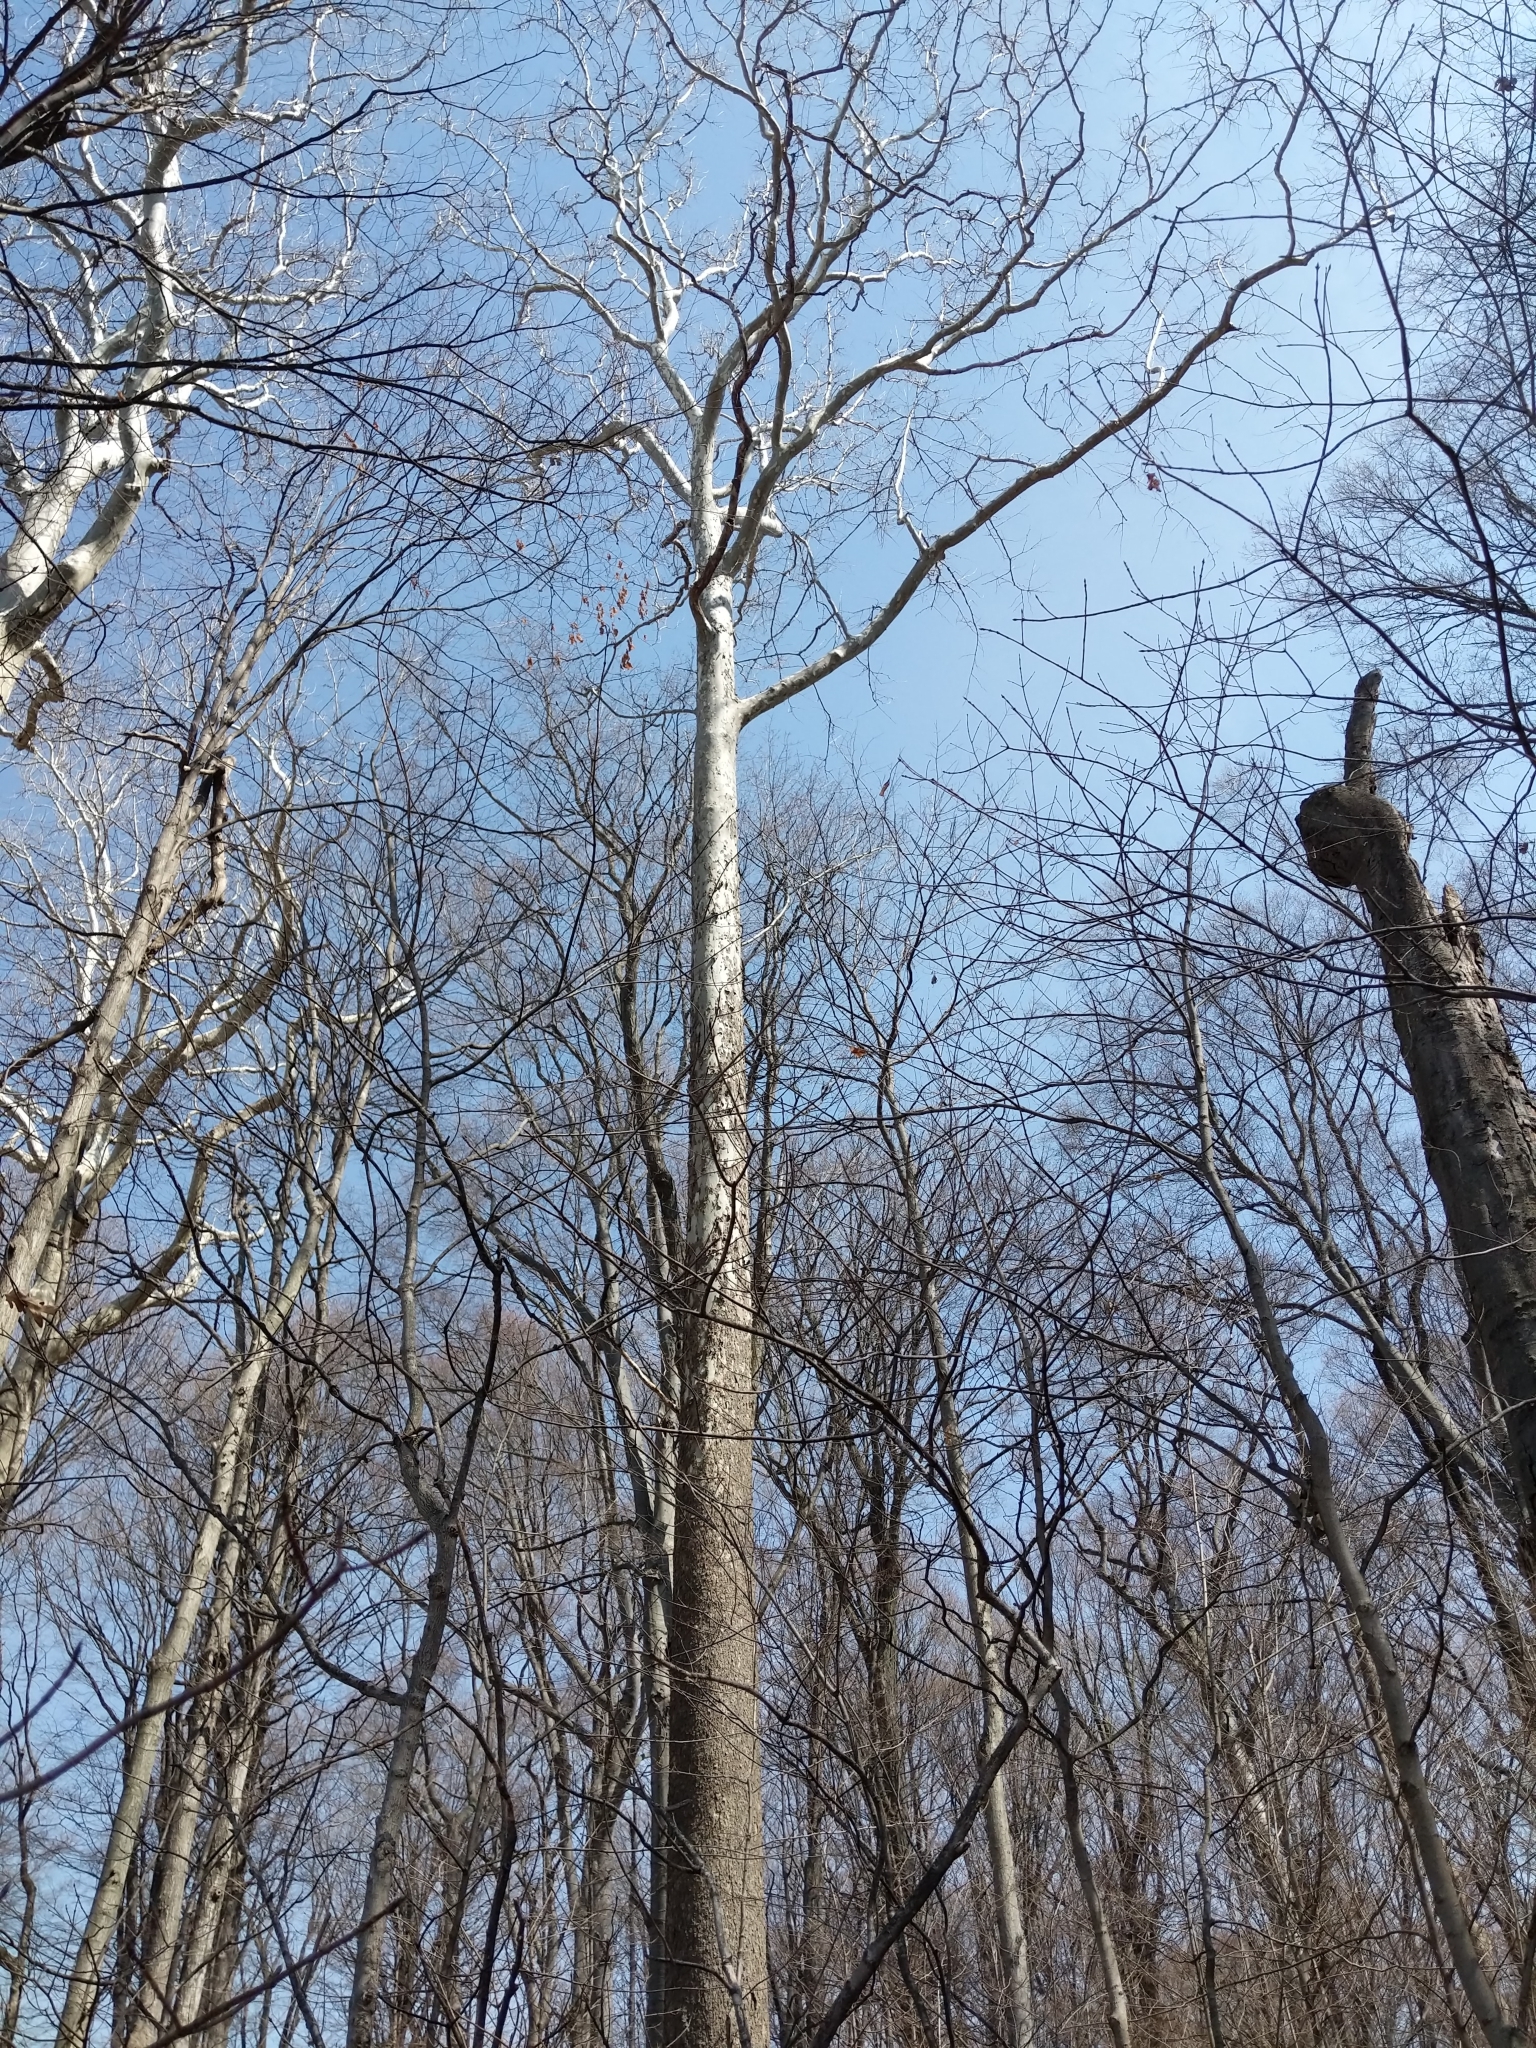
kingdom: Plantae
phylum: Tracheophyta
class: Magnoliopsida
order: Proteales
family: Platanaceae
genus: Platanus
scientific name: Platanus occidentalis
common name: American sycamore
